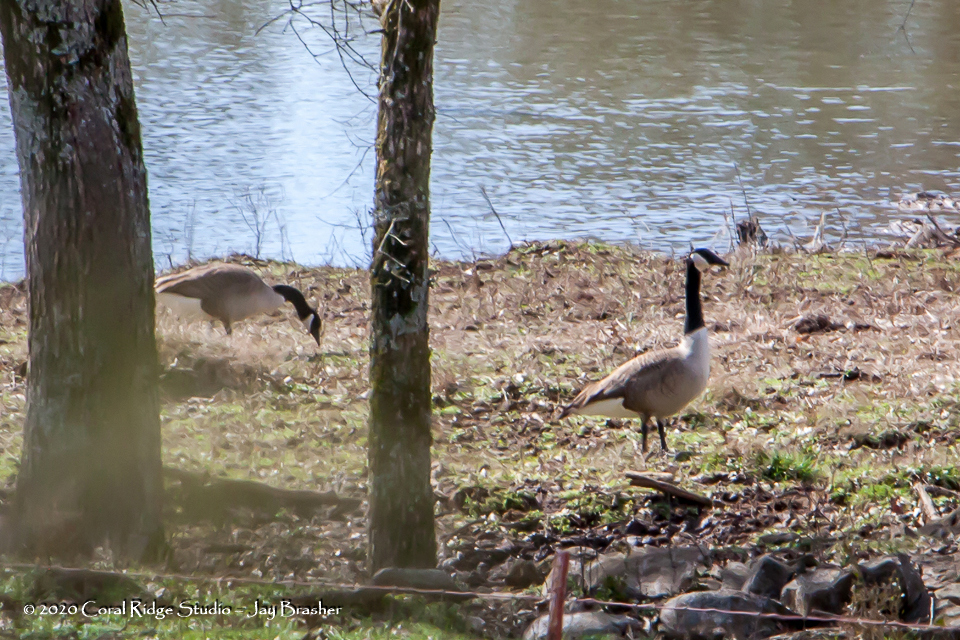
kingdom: Animalia
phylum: Chordata
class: Aves
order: Anseriformes
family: Anatidae
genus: Branta
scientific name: Branta canadensis
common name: Canada goose
